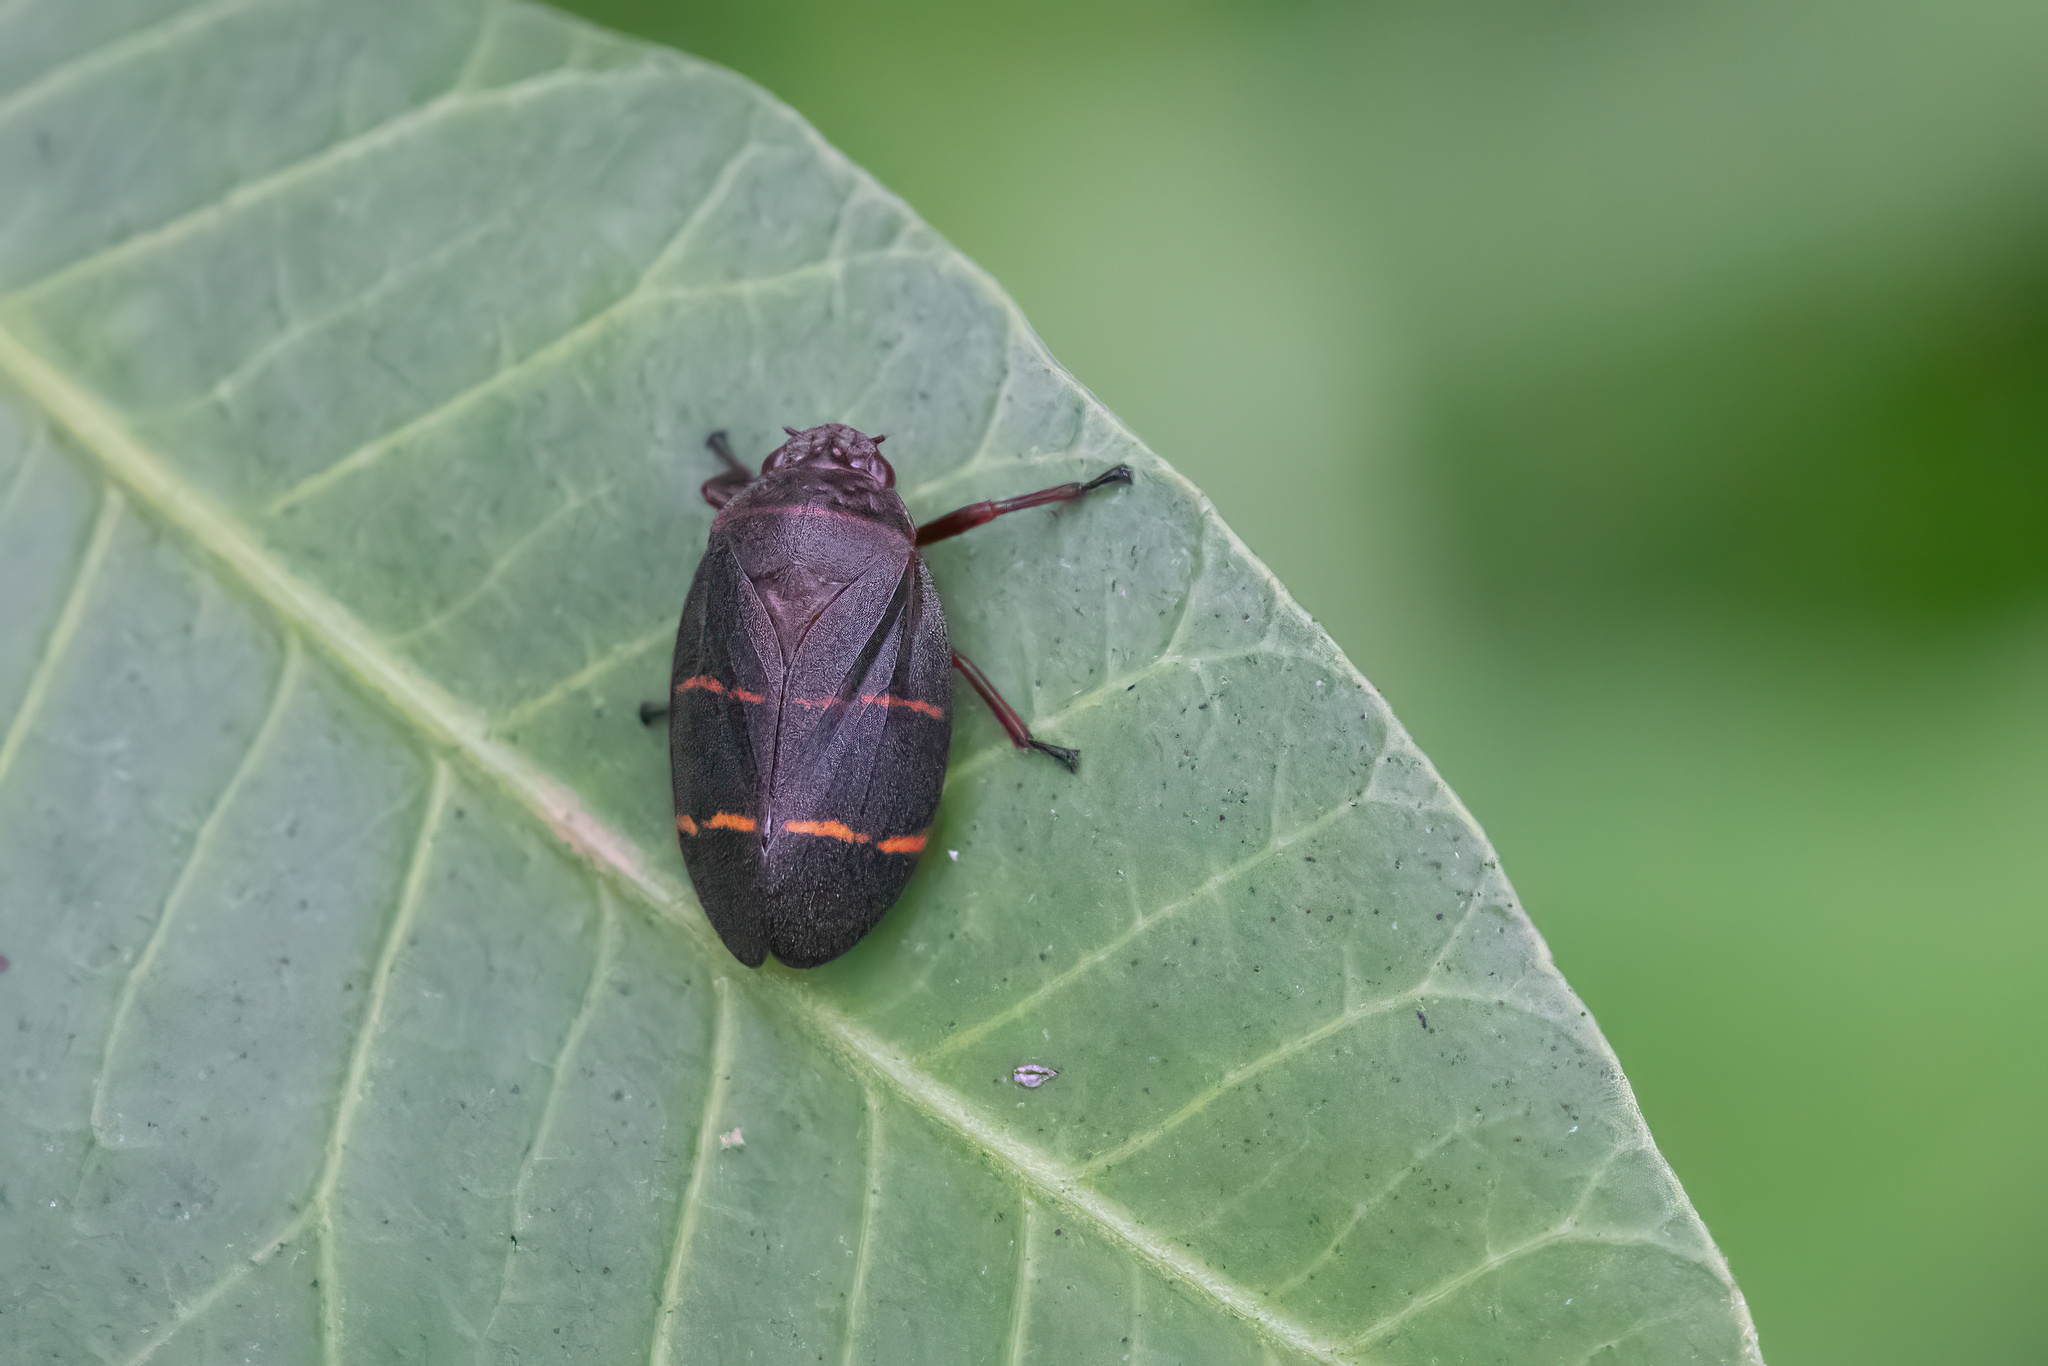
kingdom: Animalia
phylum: Arthropoda
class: Insecta
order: Hemiptera
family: Cercopidae
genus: Prosapia
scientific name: Prosapia bicincta
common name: Twolined spittlebug
